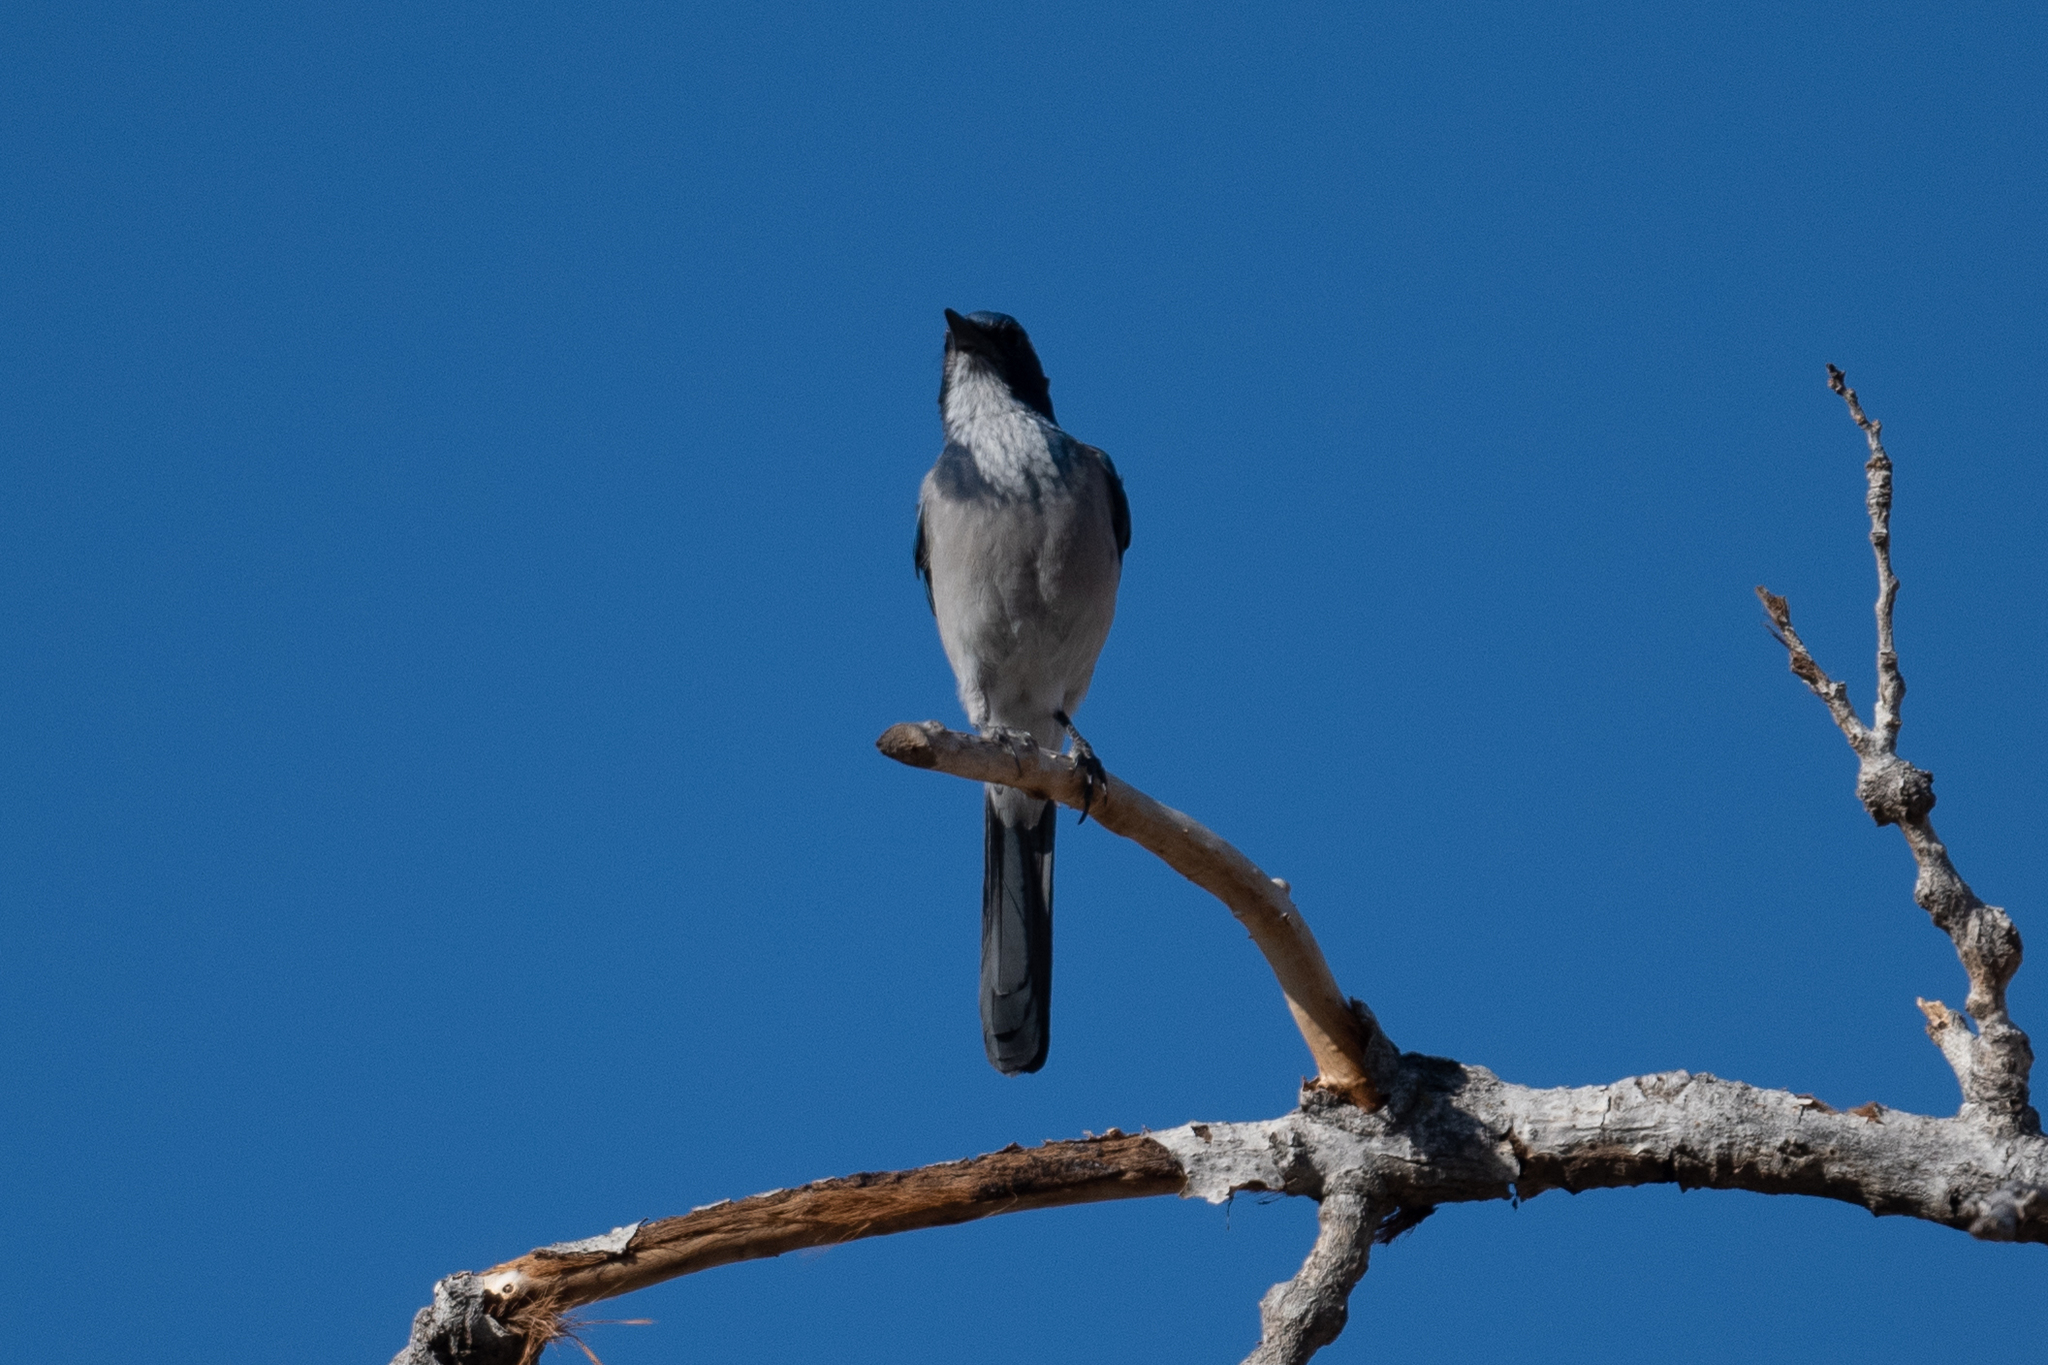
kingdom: Animalia
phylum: Chordata
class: Aves
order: Passeriformes
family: Corvidae
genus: Aphelocoma
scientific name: Aphelocoma californica
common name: California scrub-jay
